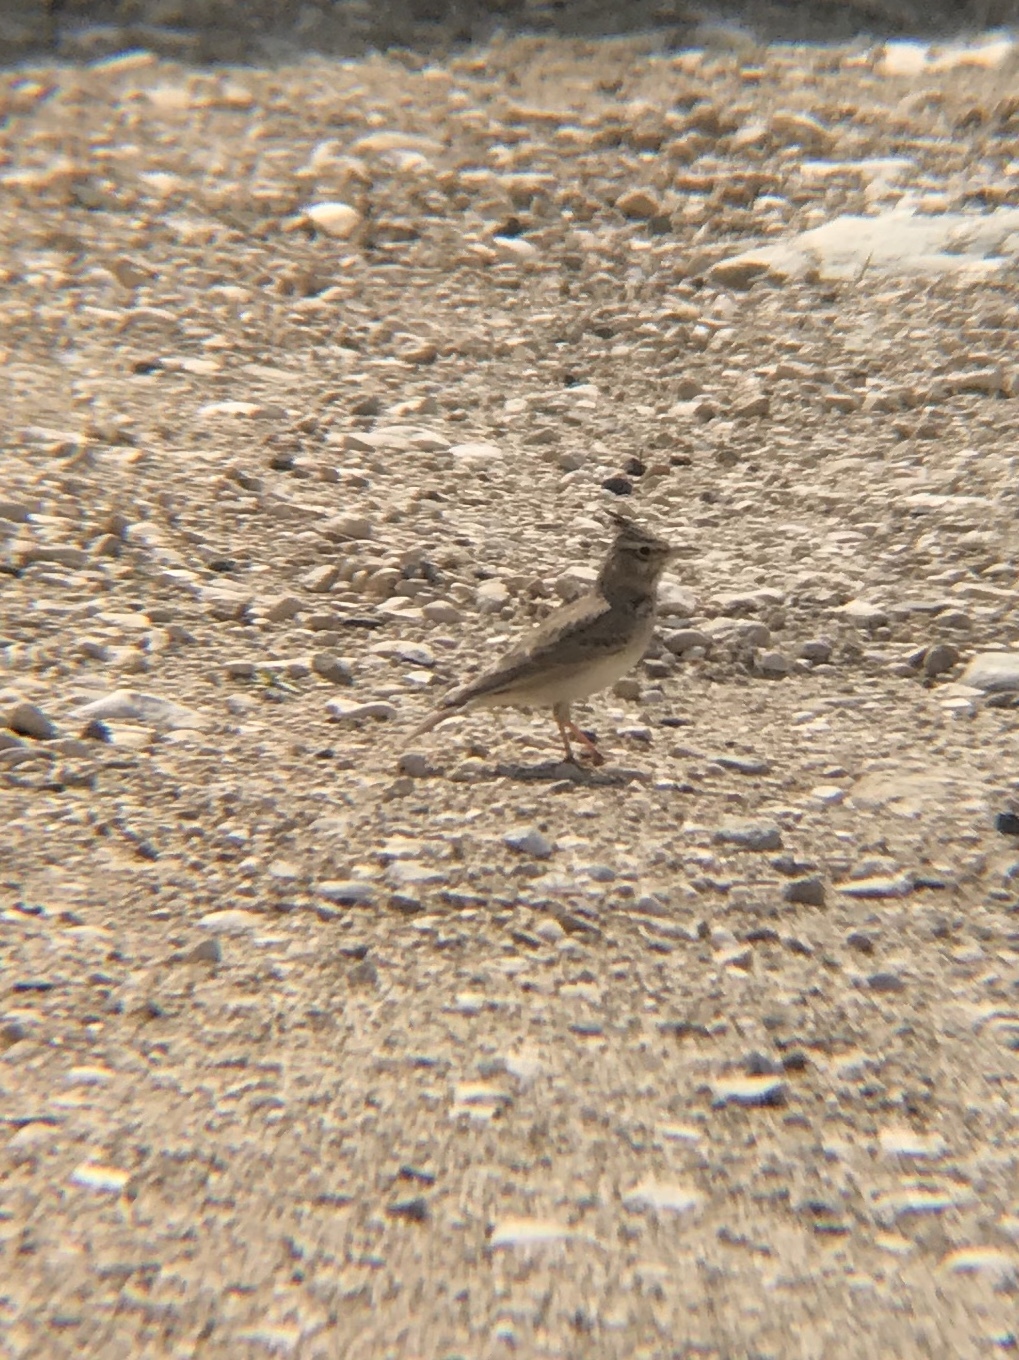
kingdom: Animalia
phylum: Chordata
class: Aves
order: Passeriformes
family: Alaudidae
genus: Galerida
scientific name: Galerida cristata
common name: Crested lark
